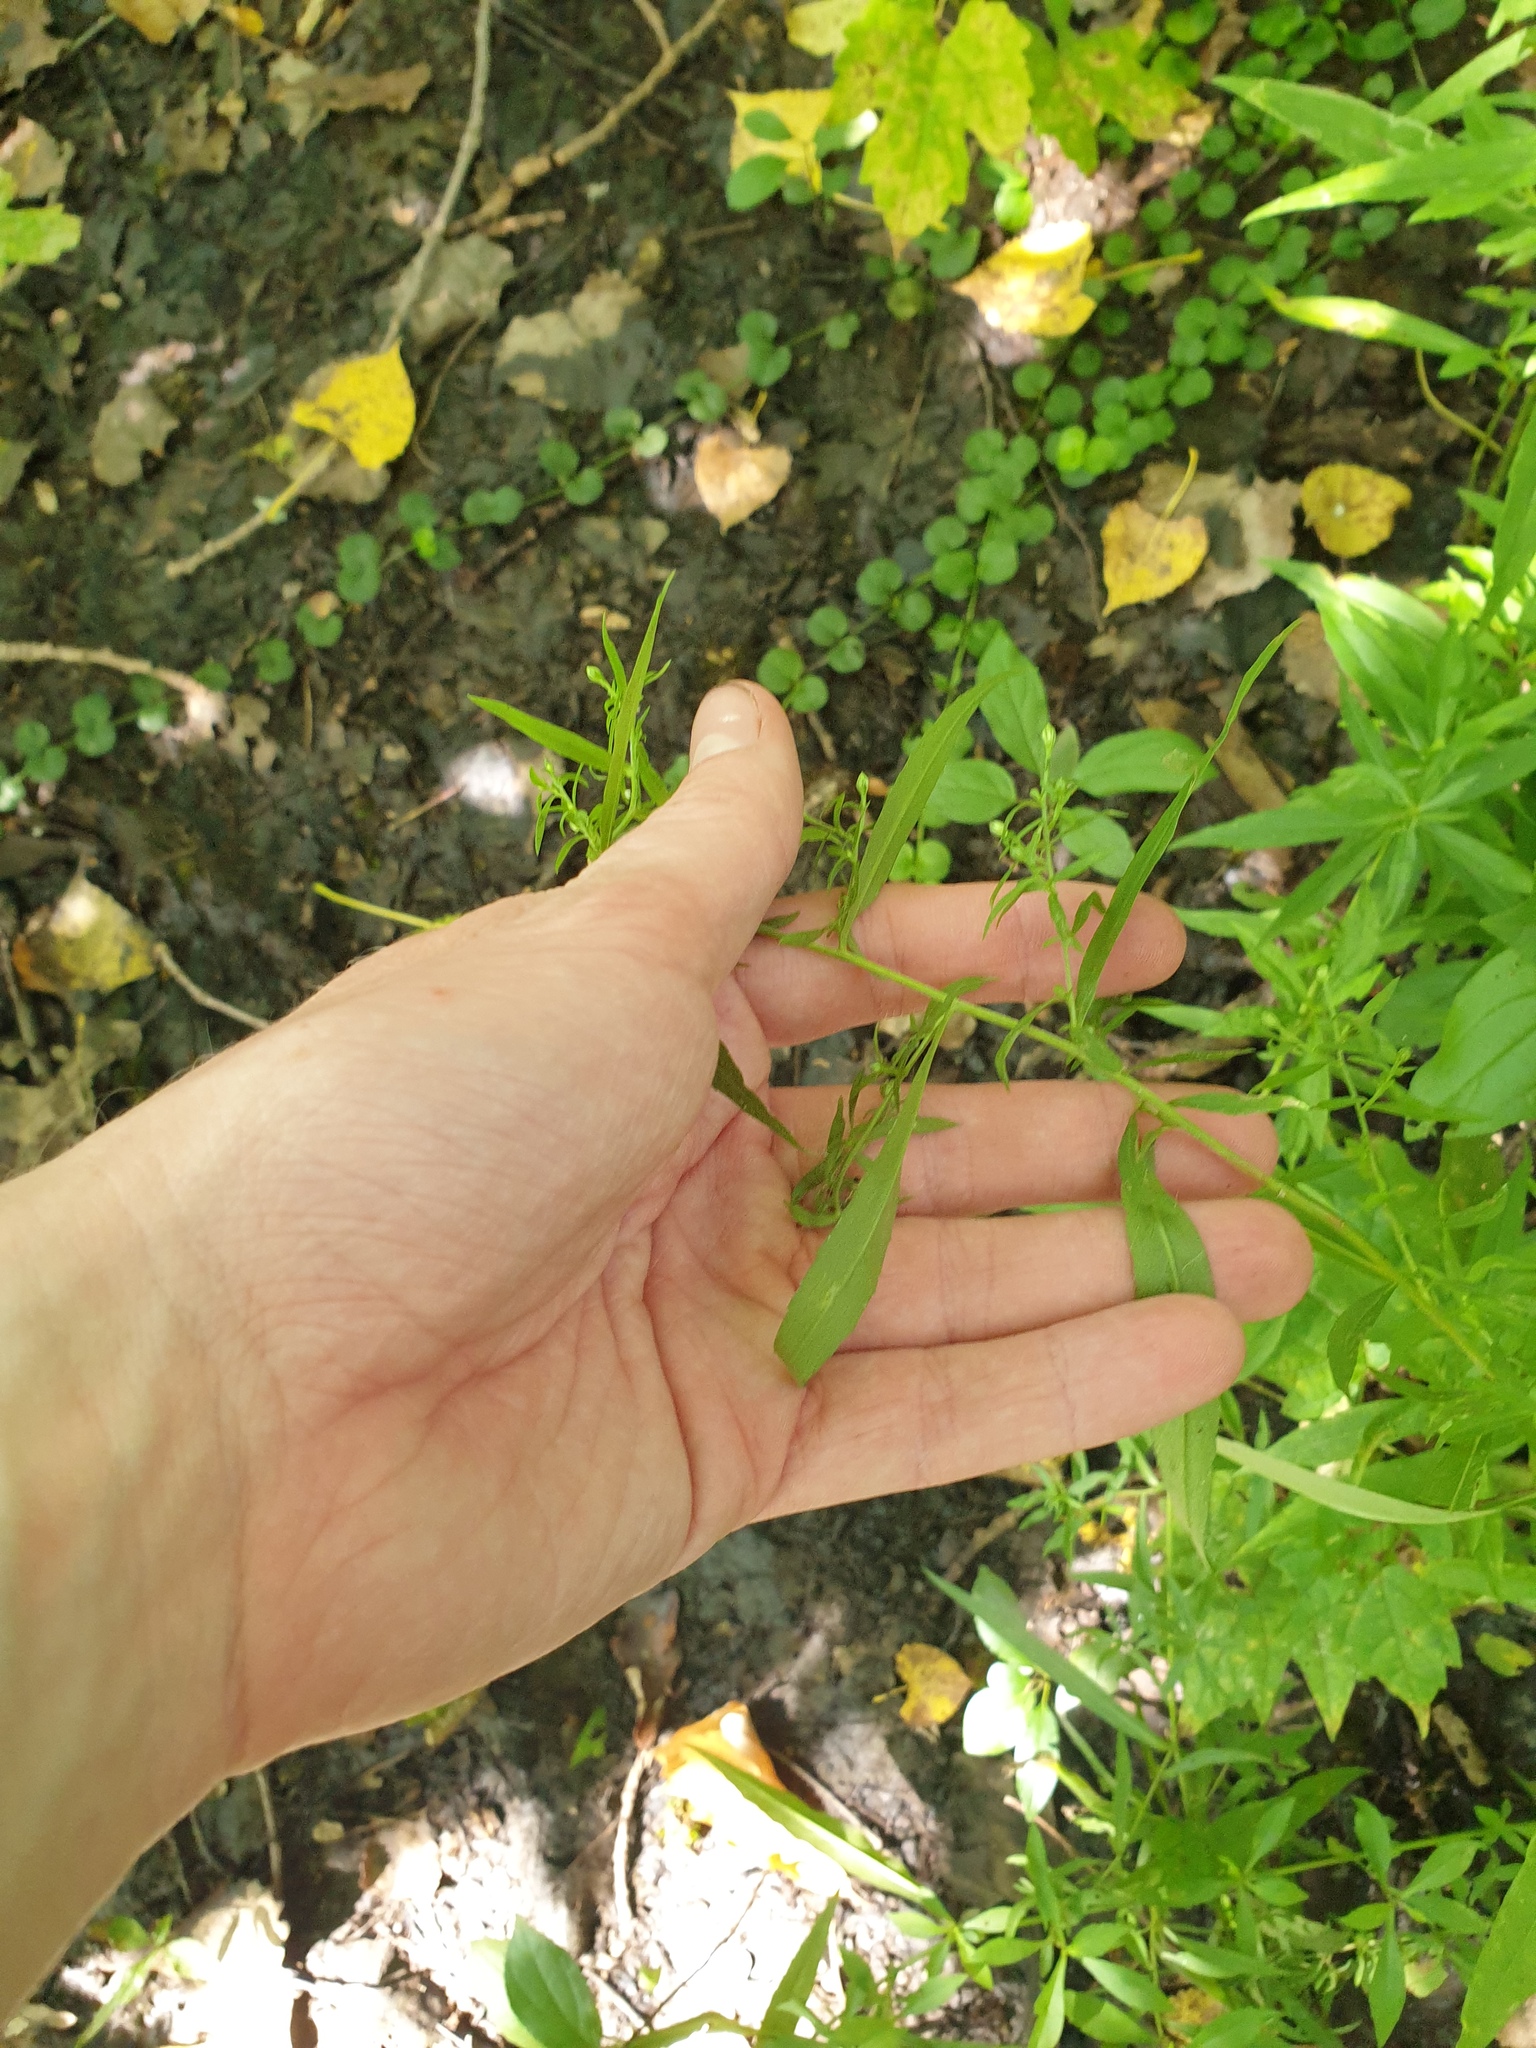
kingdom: Plantae
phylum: Tracheophyta
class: Magnoliopsida
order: Asterales
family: Asteraceae
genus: Symphyotrichum
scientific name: Symphyotrichum ontarionis
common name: Bottomland aster
